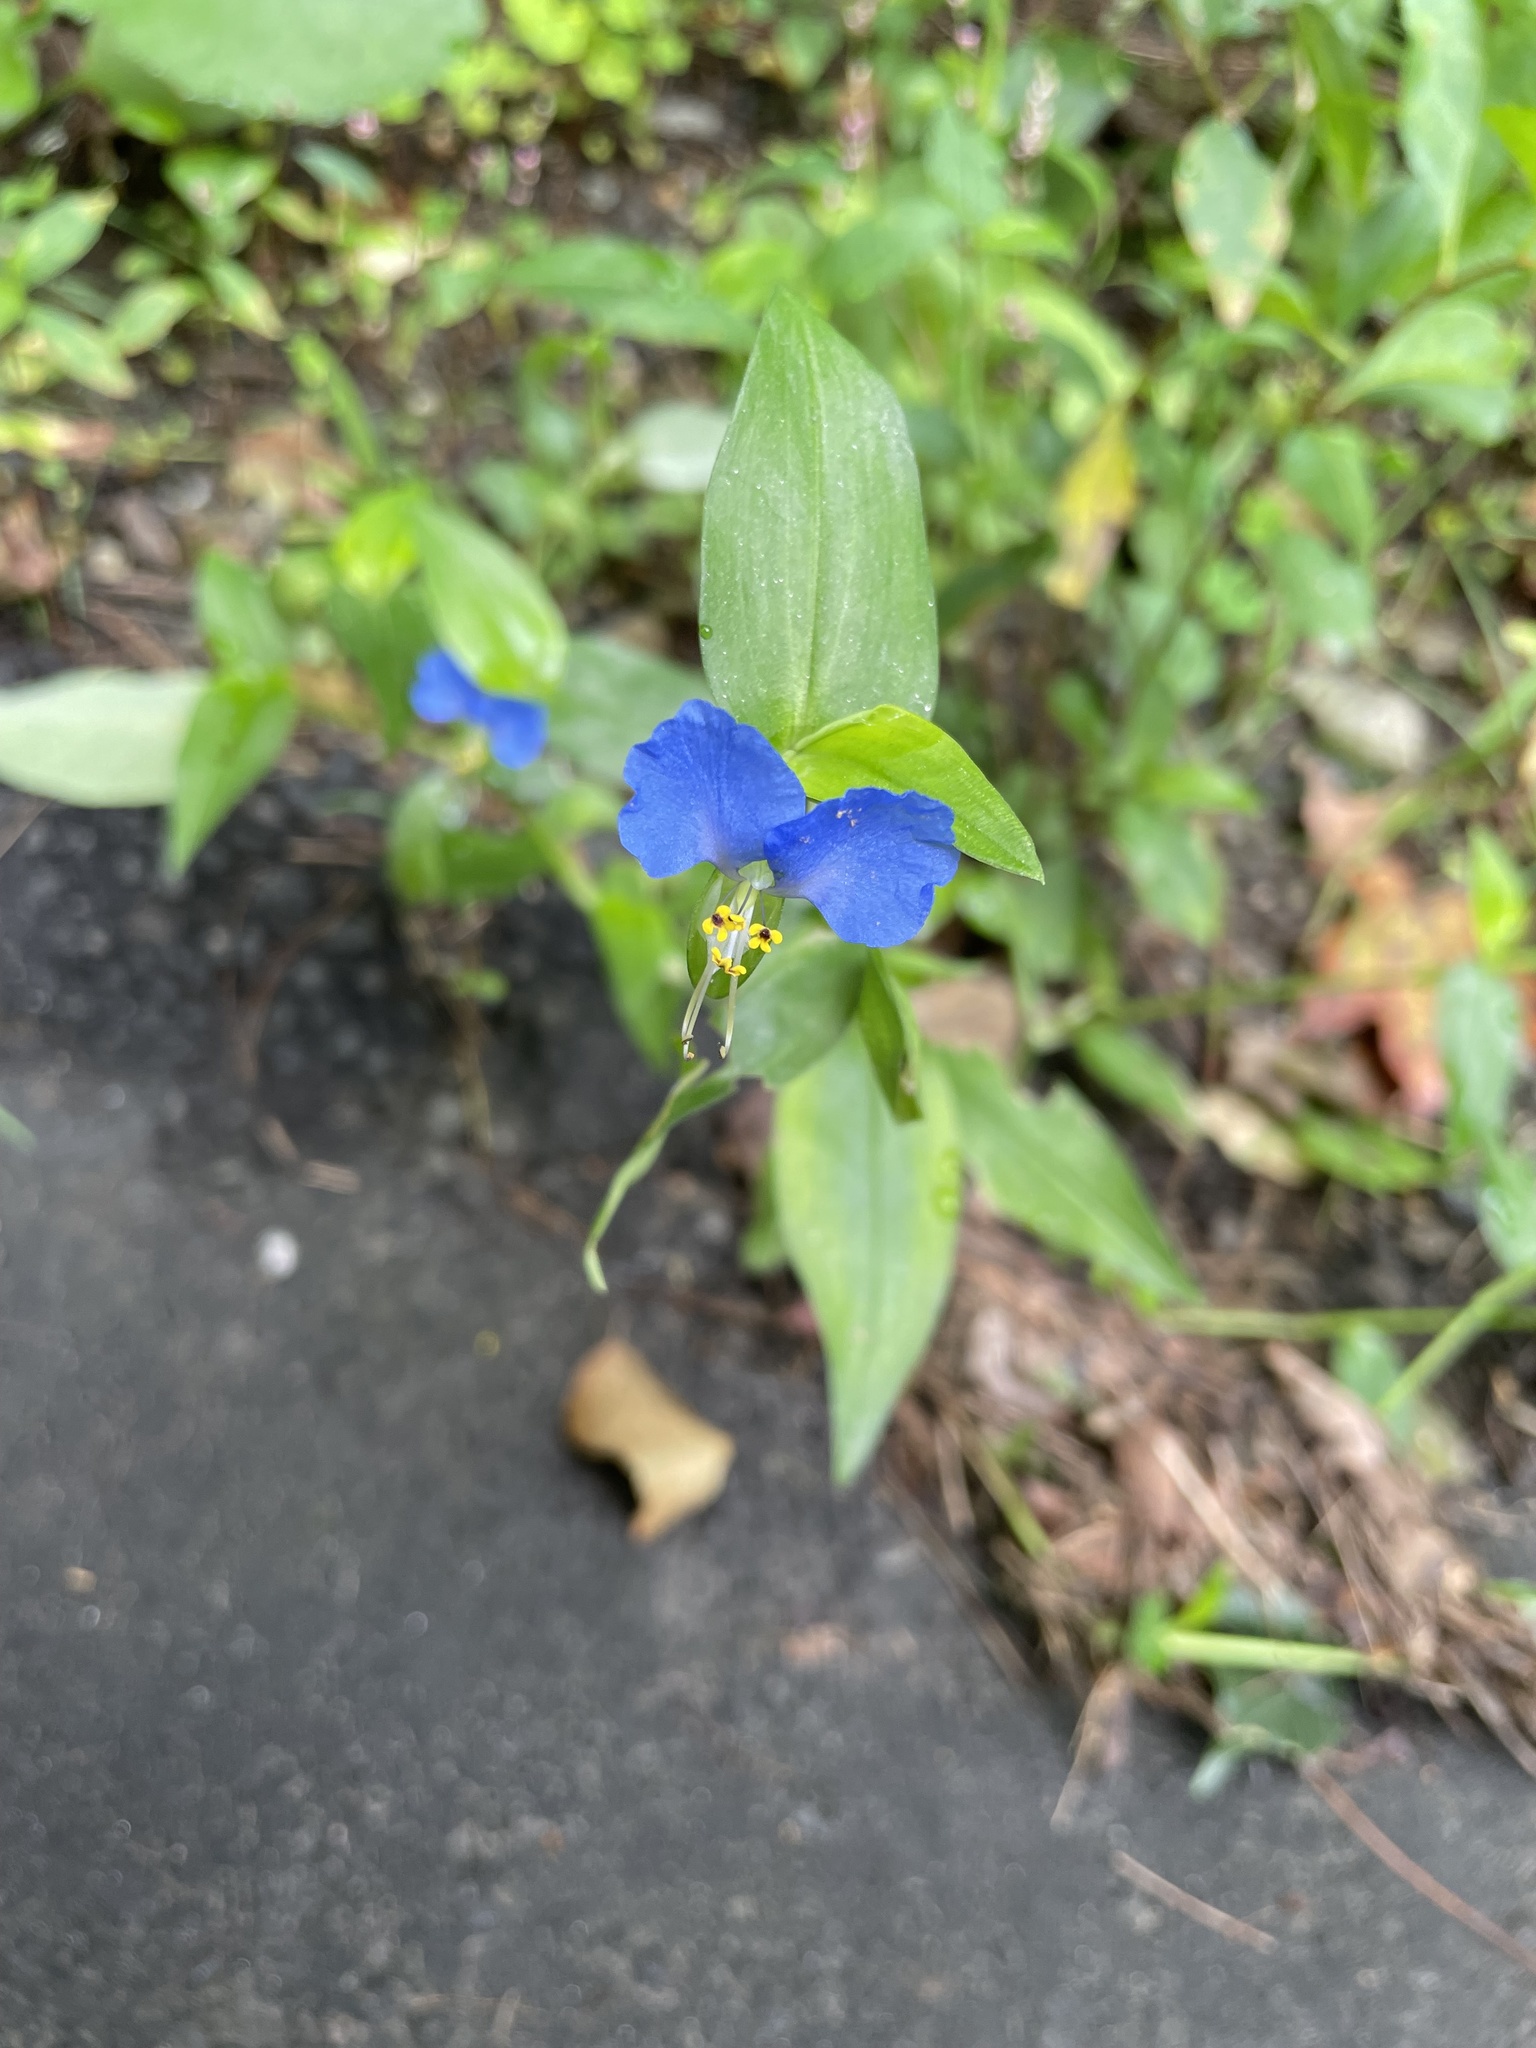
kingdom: Plantae
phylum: Tracheophyta
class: Liliopsida
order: Commelinales
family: Commelinaceae
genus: Commelina
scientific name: Commelina communis
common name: Asiatic dayflower
